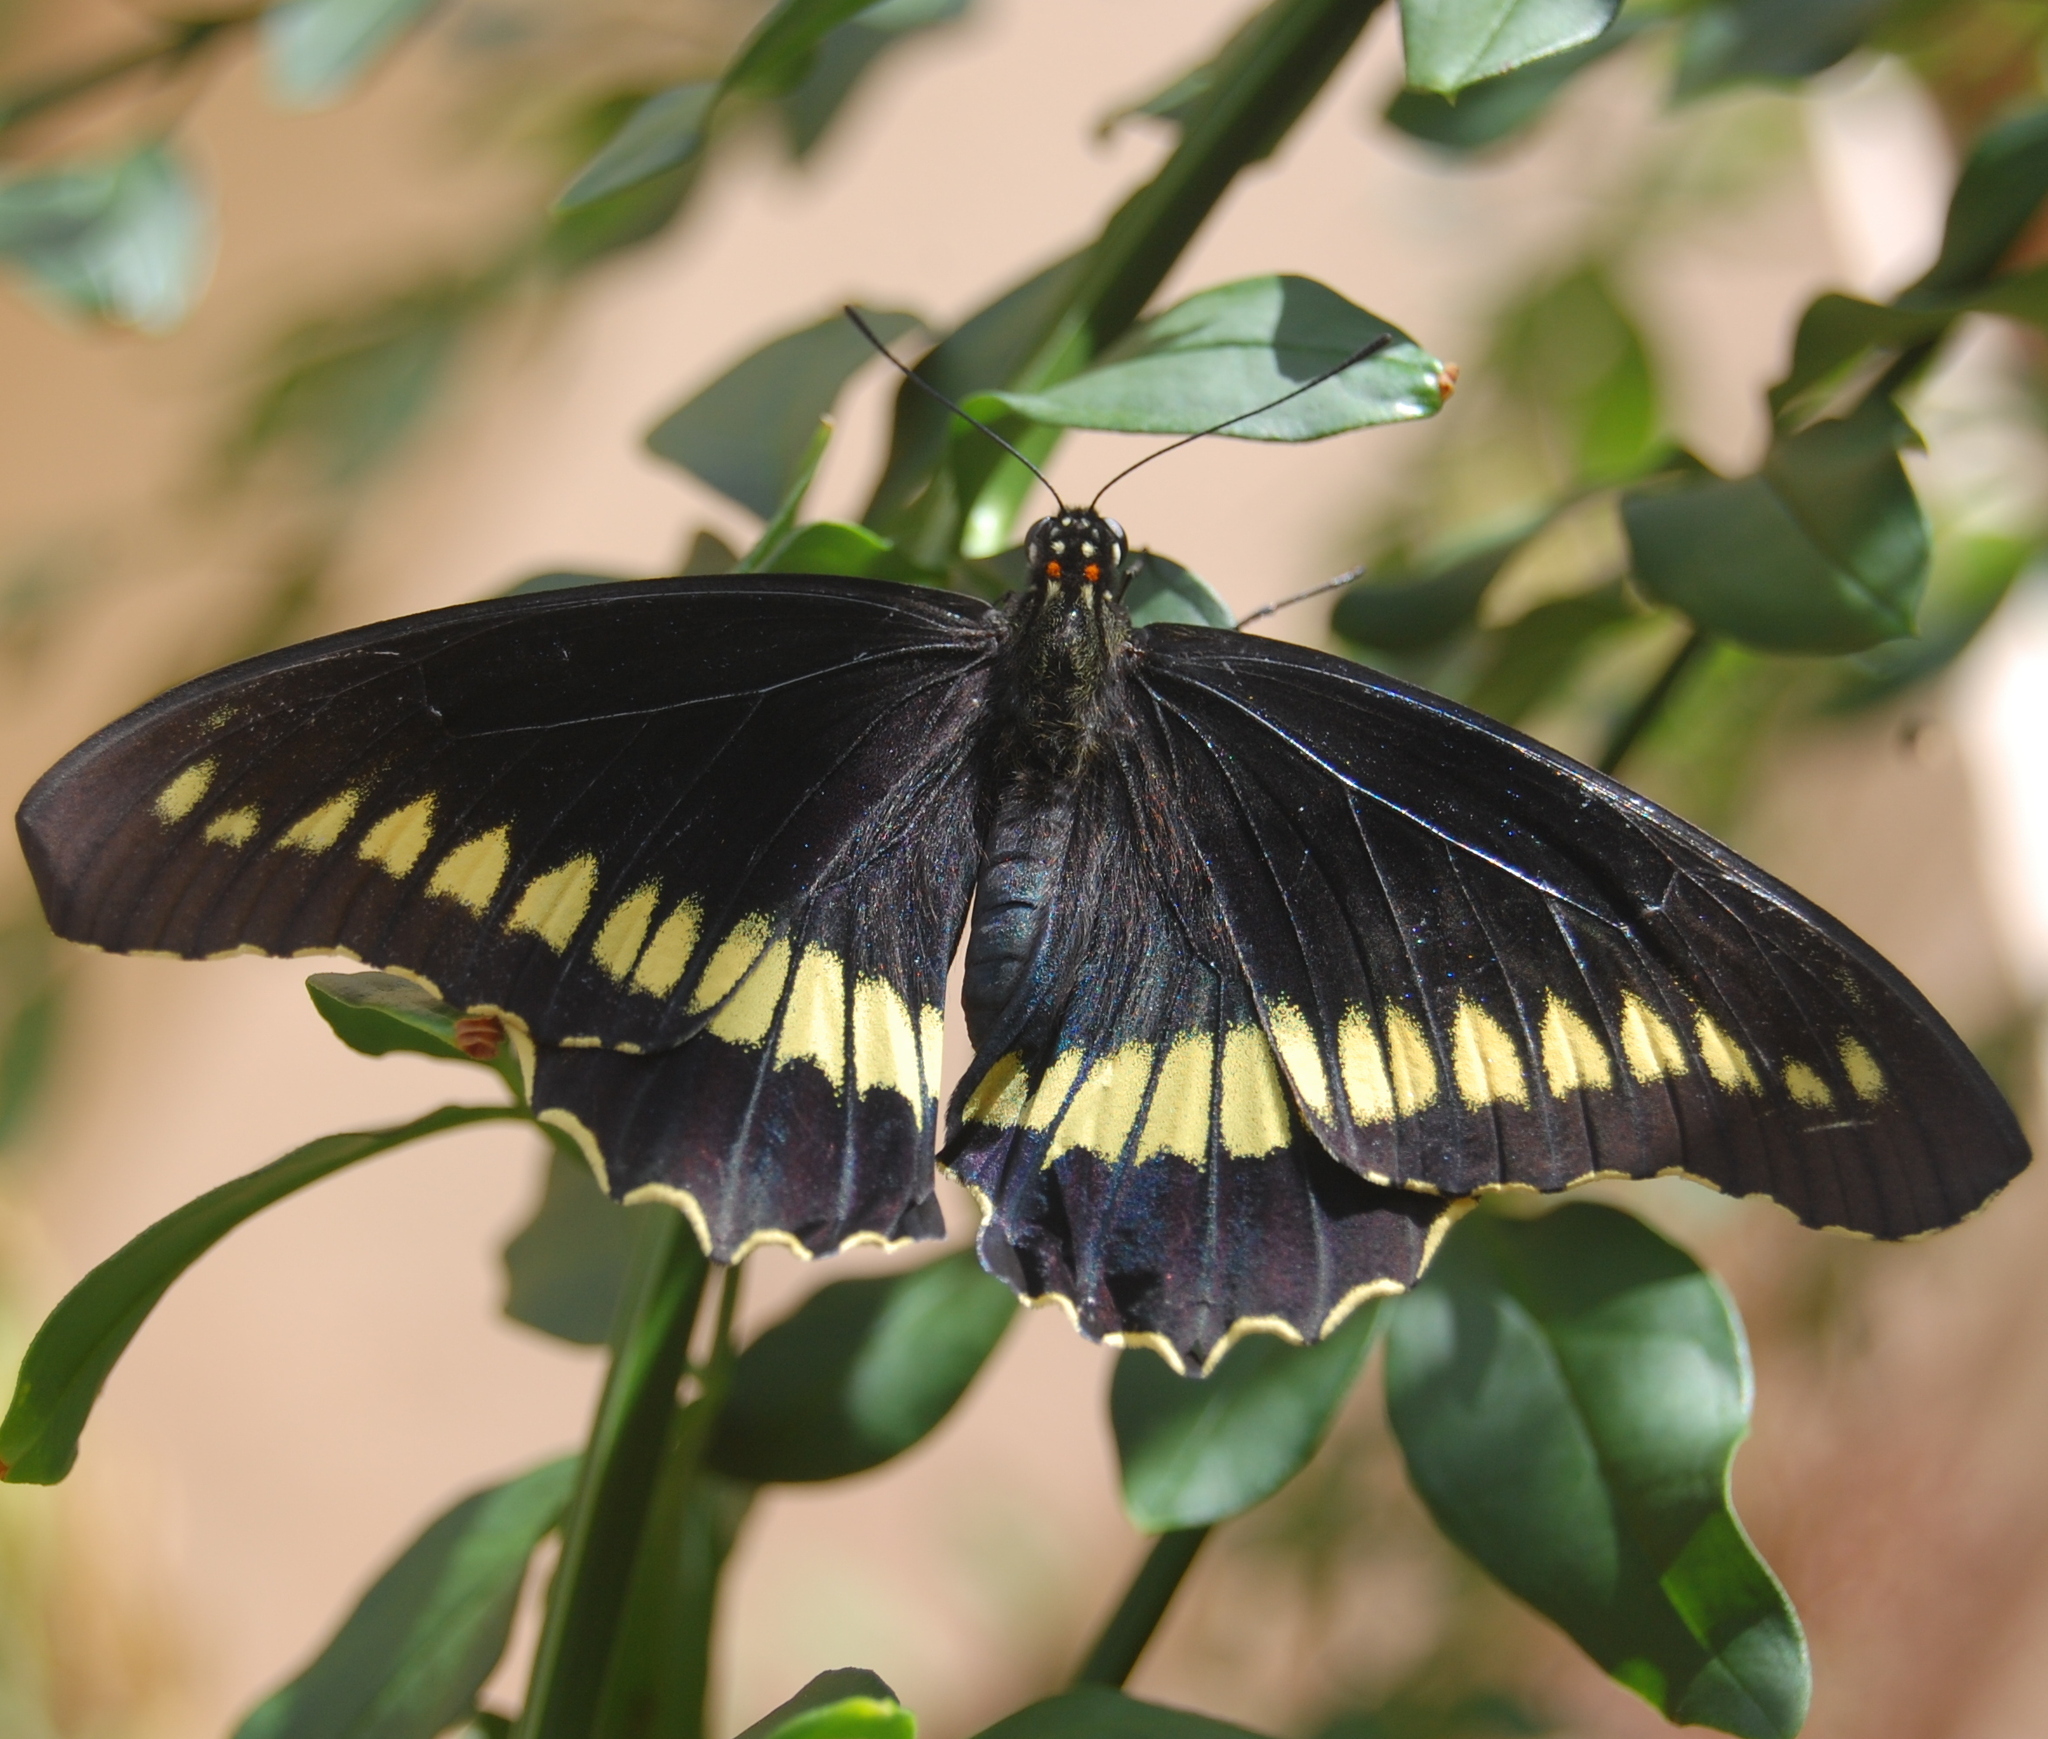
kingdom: Animalia
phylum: Arthropoda
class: Insecta
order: Lepidoptera
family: Papilionidae
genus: Battus
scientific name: Battus polydamas
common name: Polydamas swallowtail
